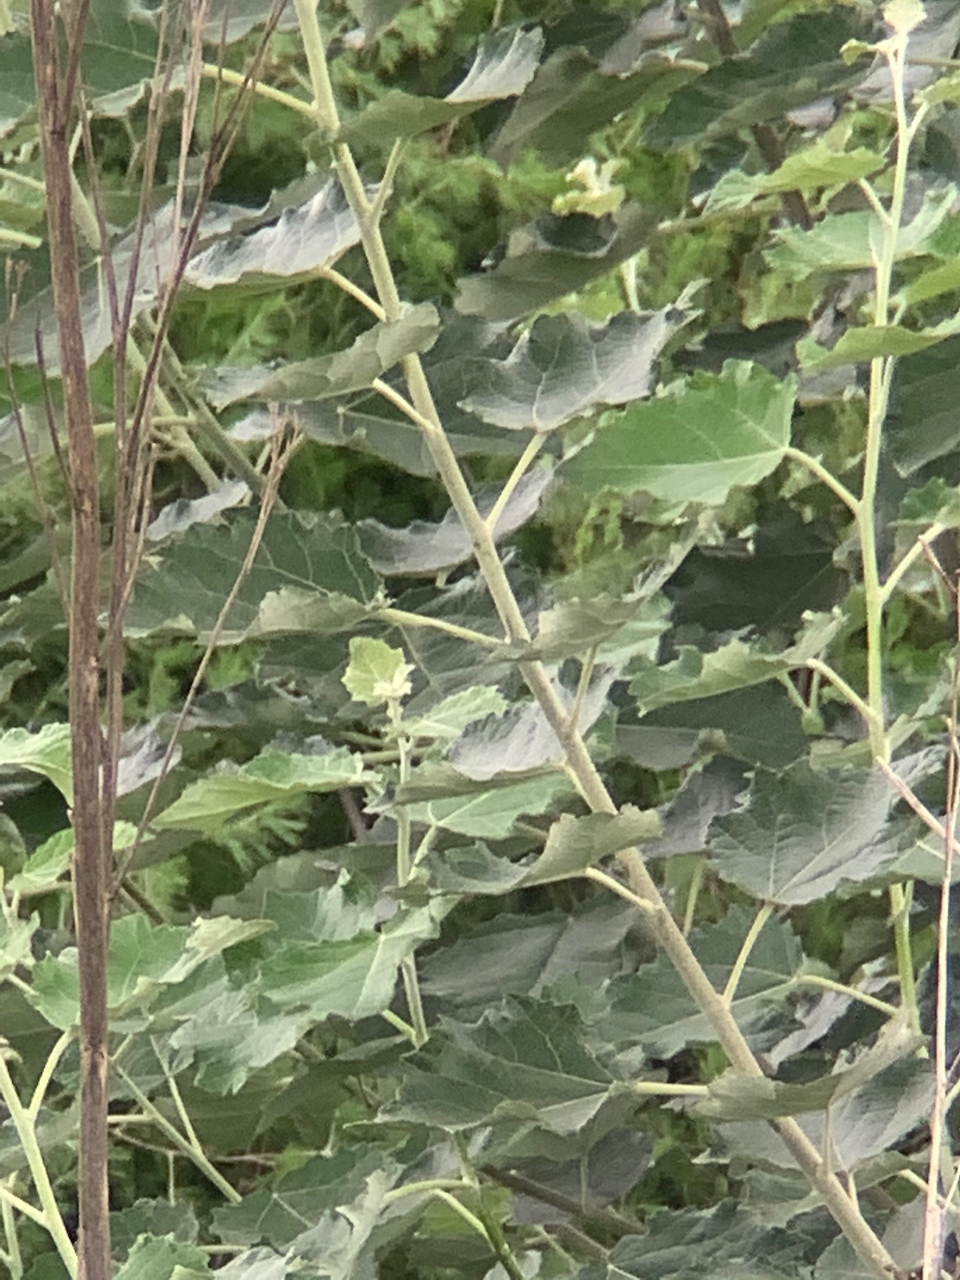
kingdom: Plantae
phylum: Tracheophyta
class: Magnoliopsida
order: Malpighiales
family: Salicaceae
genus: Populus
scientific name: Populus canescens
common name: Gray poplar
